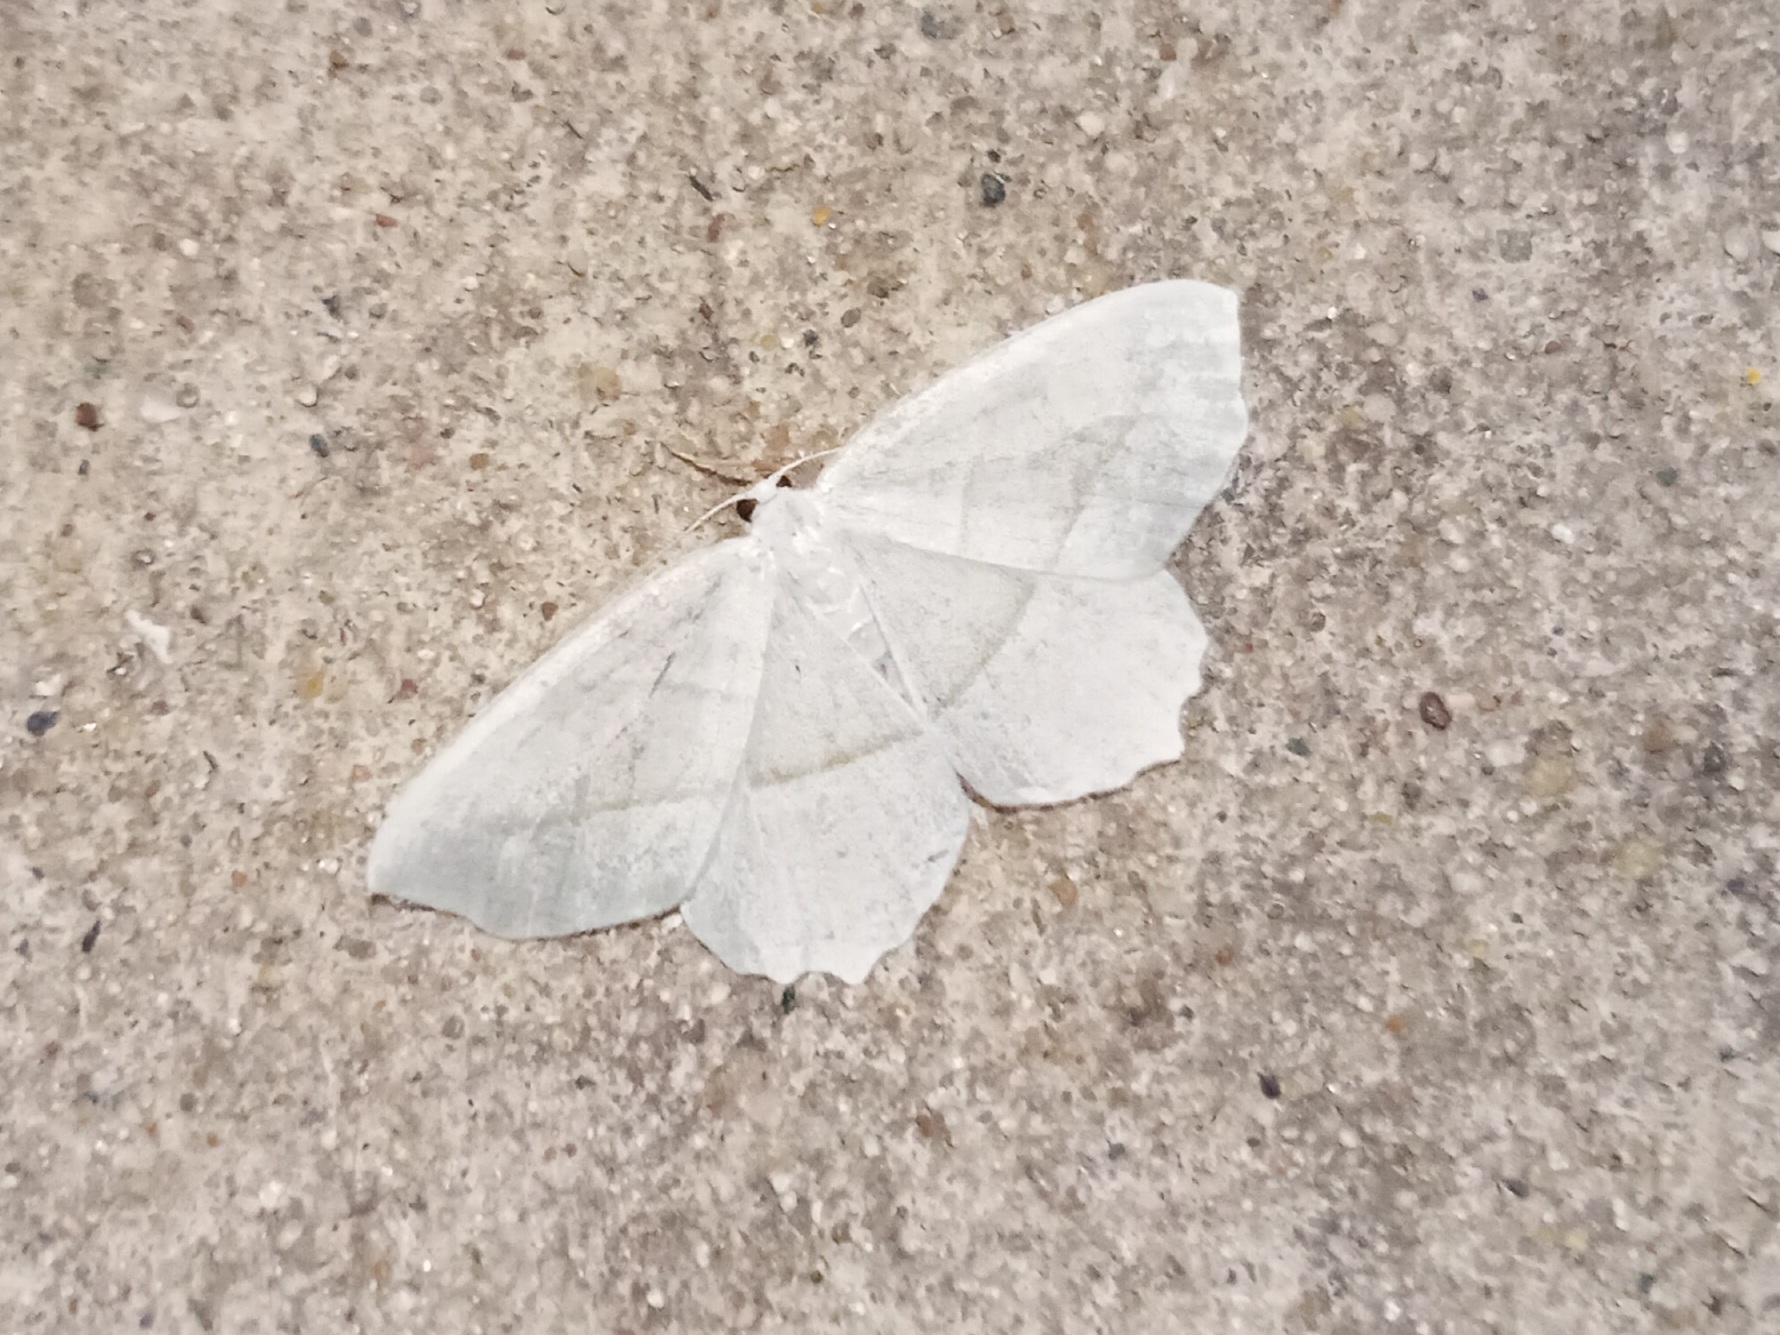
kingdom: Animalia
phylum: Arthropoda
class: Insecta
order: Lepidoptera
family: Geometridae
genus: Campaea
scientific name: Campaea perlata
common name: Fringed looper
